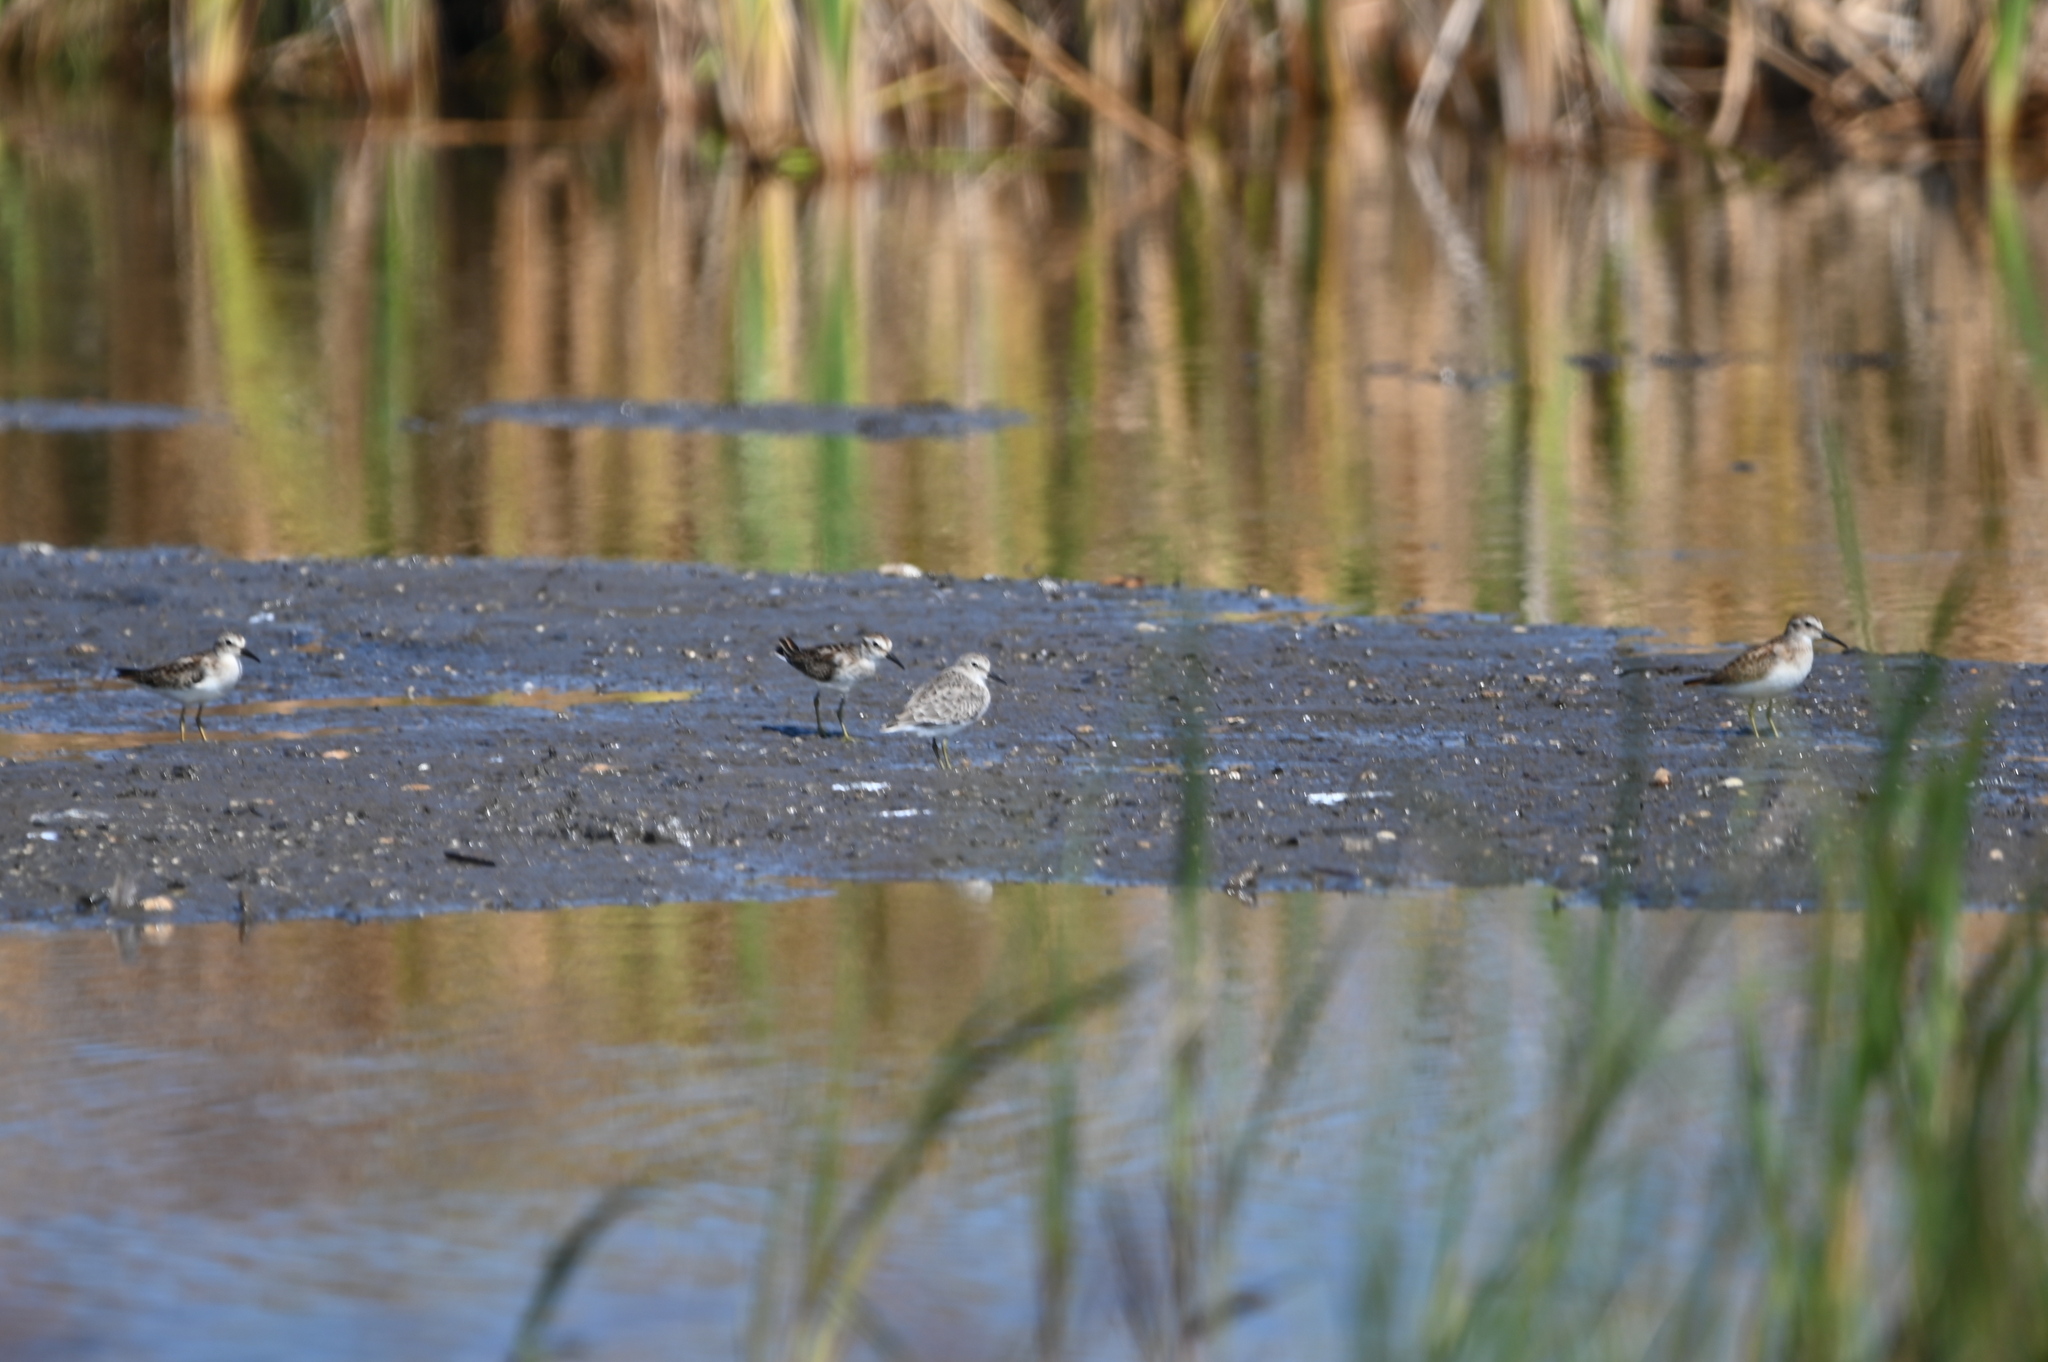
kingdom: Animalia
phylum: Chordata
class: Aves
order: Charadriiformes
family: Scolopacidae
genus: Calidris
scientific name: Calidris minutilla
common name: Least sandpiper
